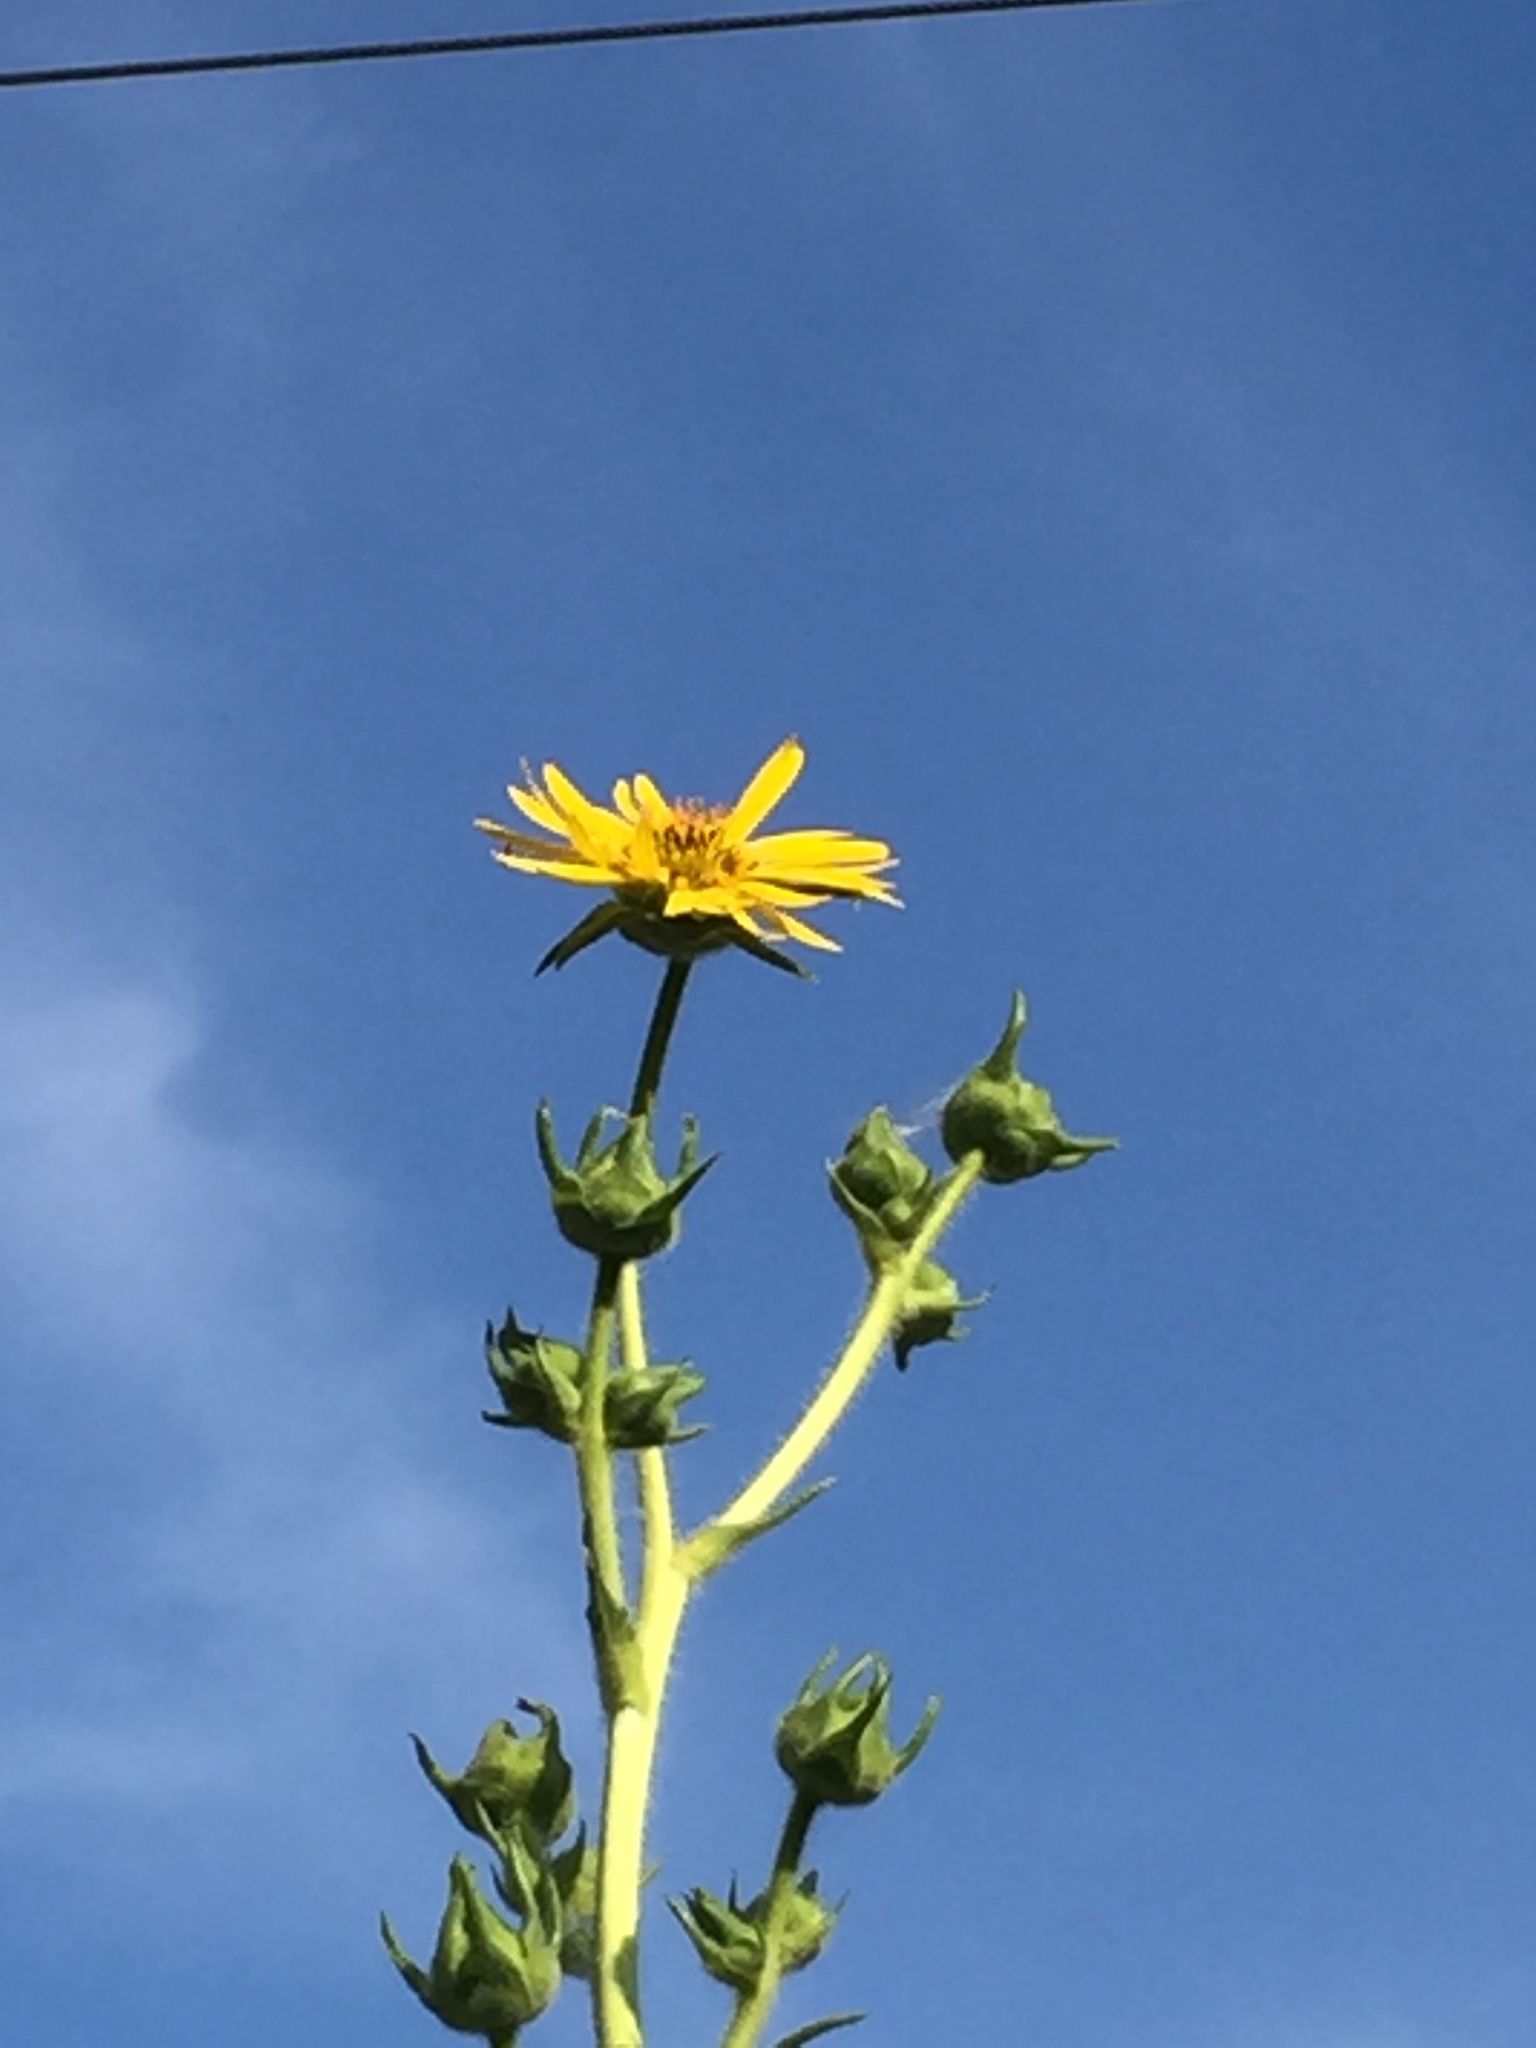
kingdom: Plantae
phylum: Tracheophyta
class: Magnoliopsida
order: Asterales
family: Asteraceae
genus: Silphium
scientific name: Silphium laciniatum
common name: Polarplant
